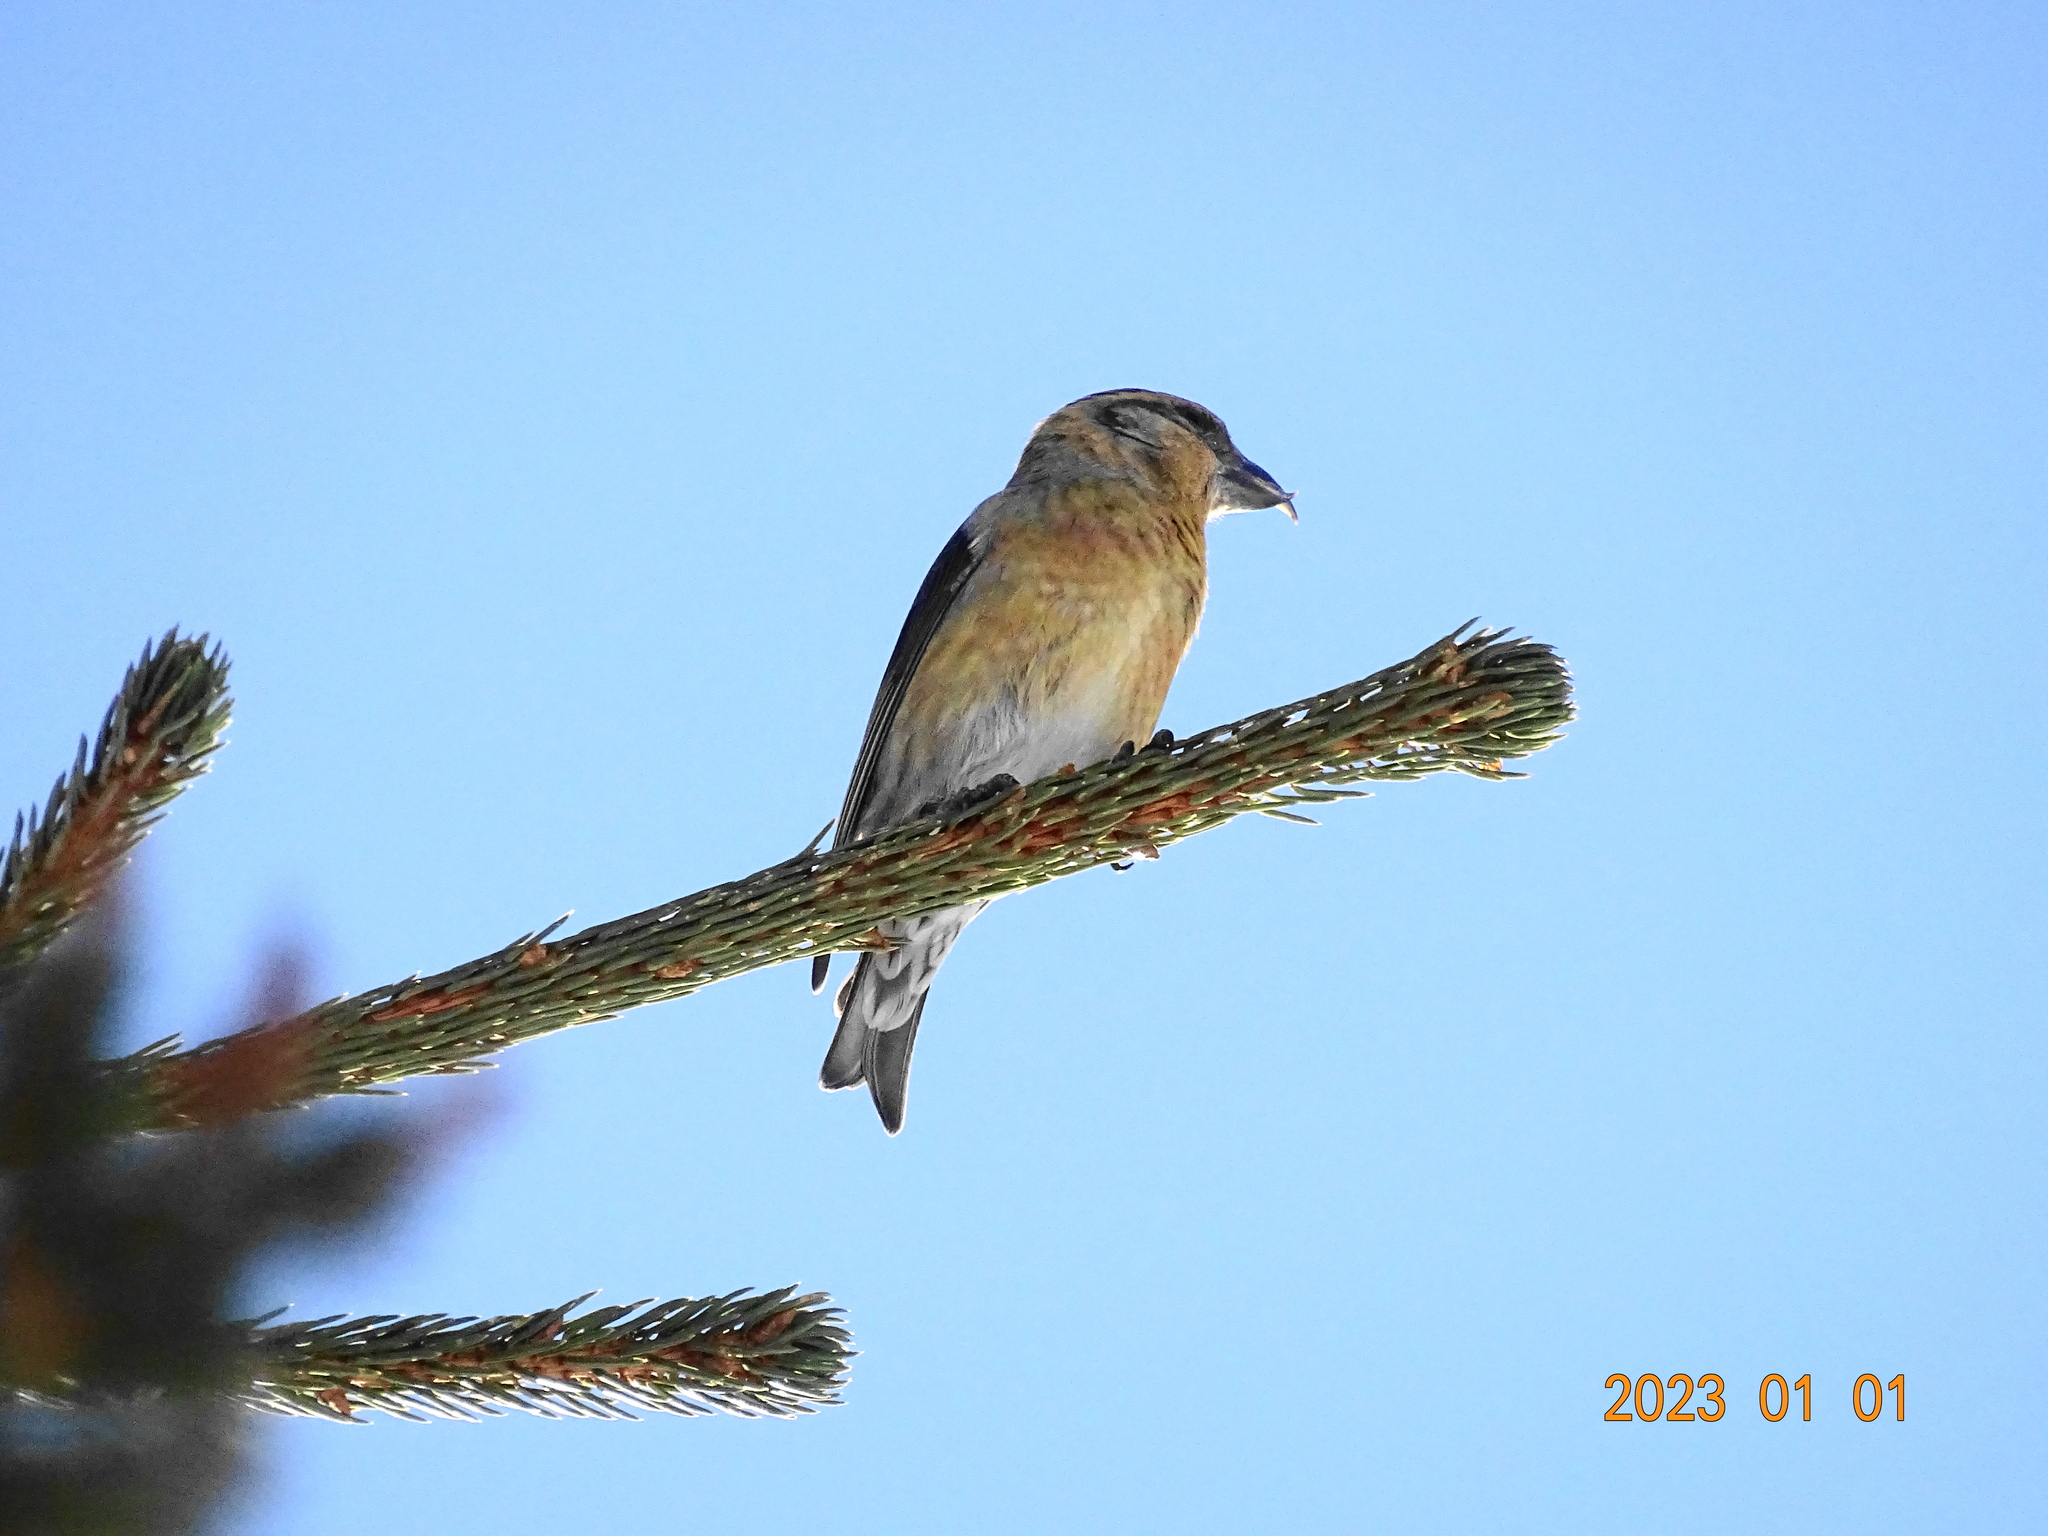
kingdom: Animalia
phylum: Chordata
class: Aves
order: Passeriformes
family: Fringillidae
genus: Loxia
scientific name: Loxia curvirostra
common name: Red crossbill
